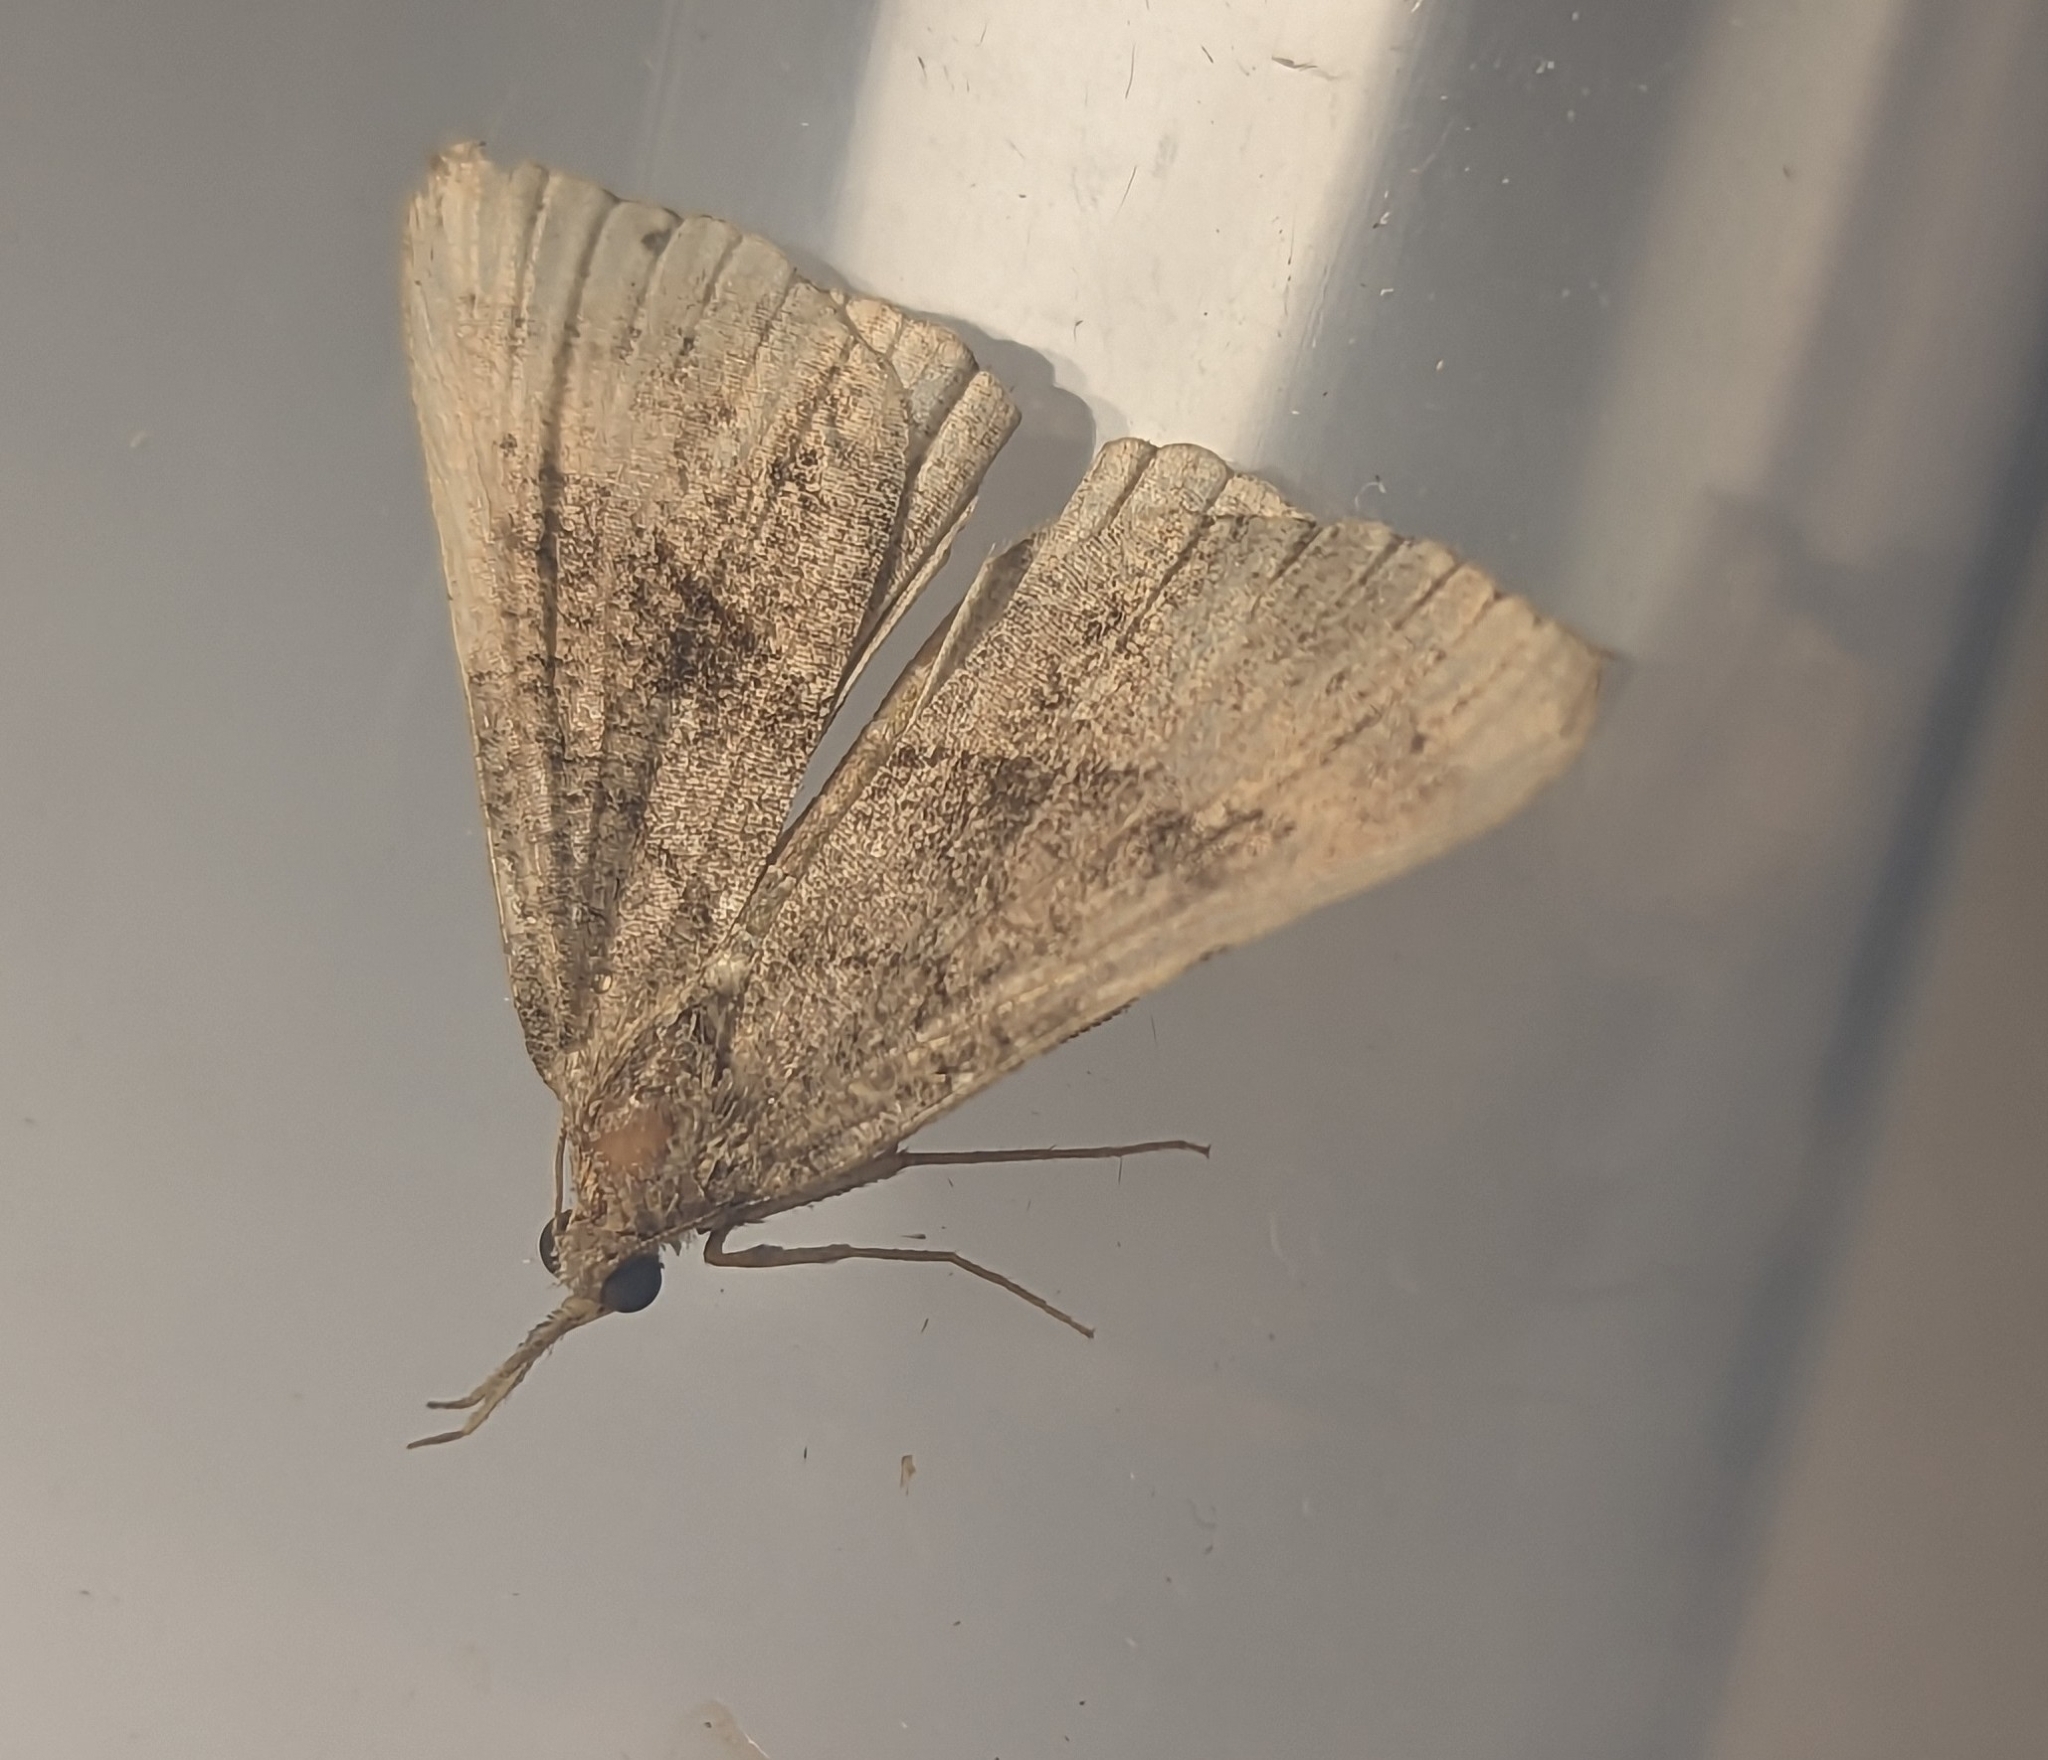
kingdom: Animalia
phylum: Arthropoda
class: Insecta
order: Lepidoptera
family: Erebidae
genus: Hypena
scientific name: Hypena proboscidalis
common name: Snout
